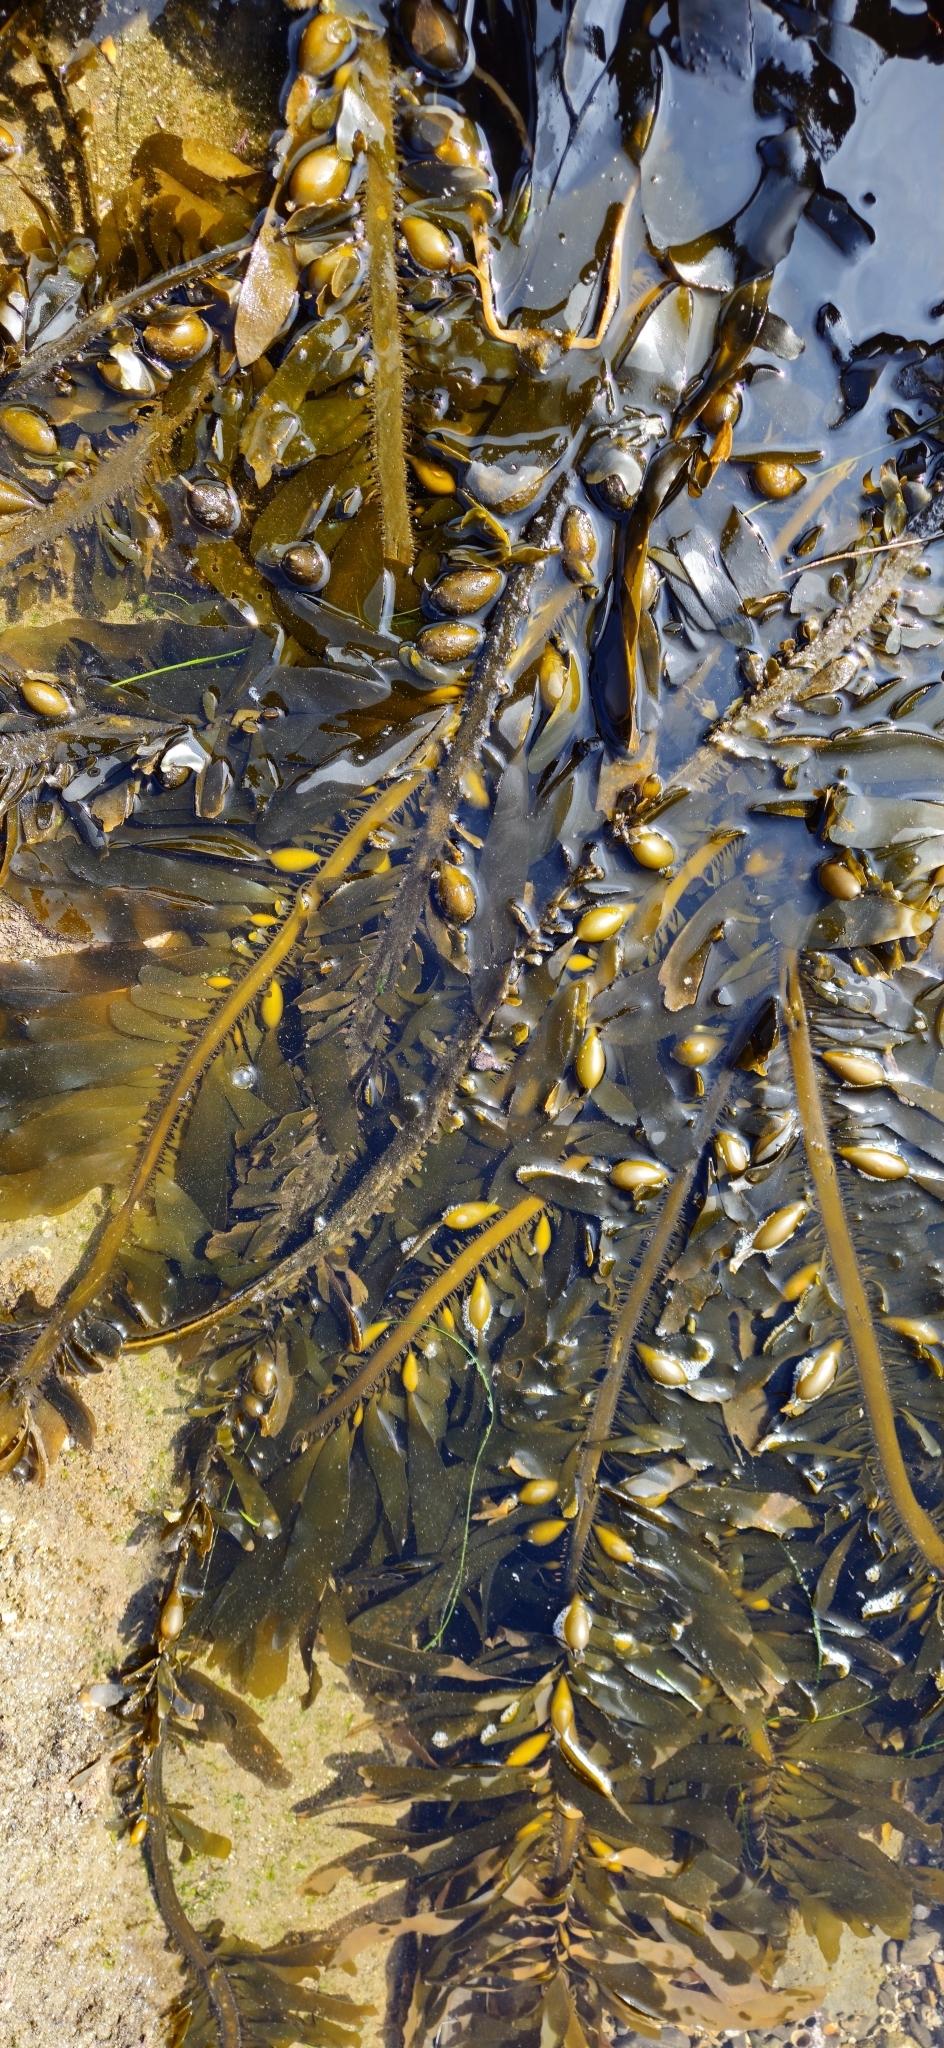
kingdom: Chromista
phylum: Ochrophyta
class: Phaeophyceae
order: Laminariales
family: Lessoniaceae
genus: Egregia
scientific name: Egregia menziesii
